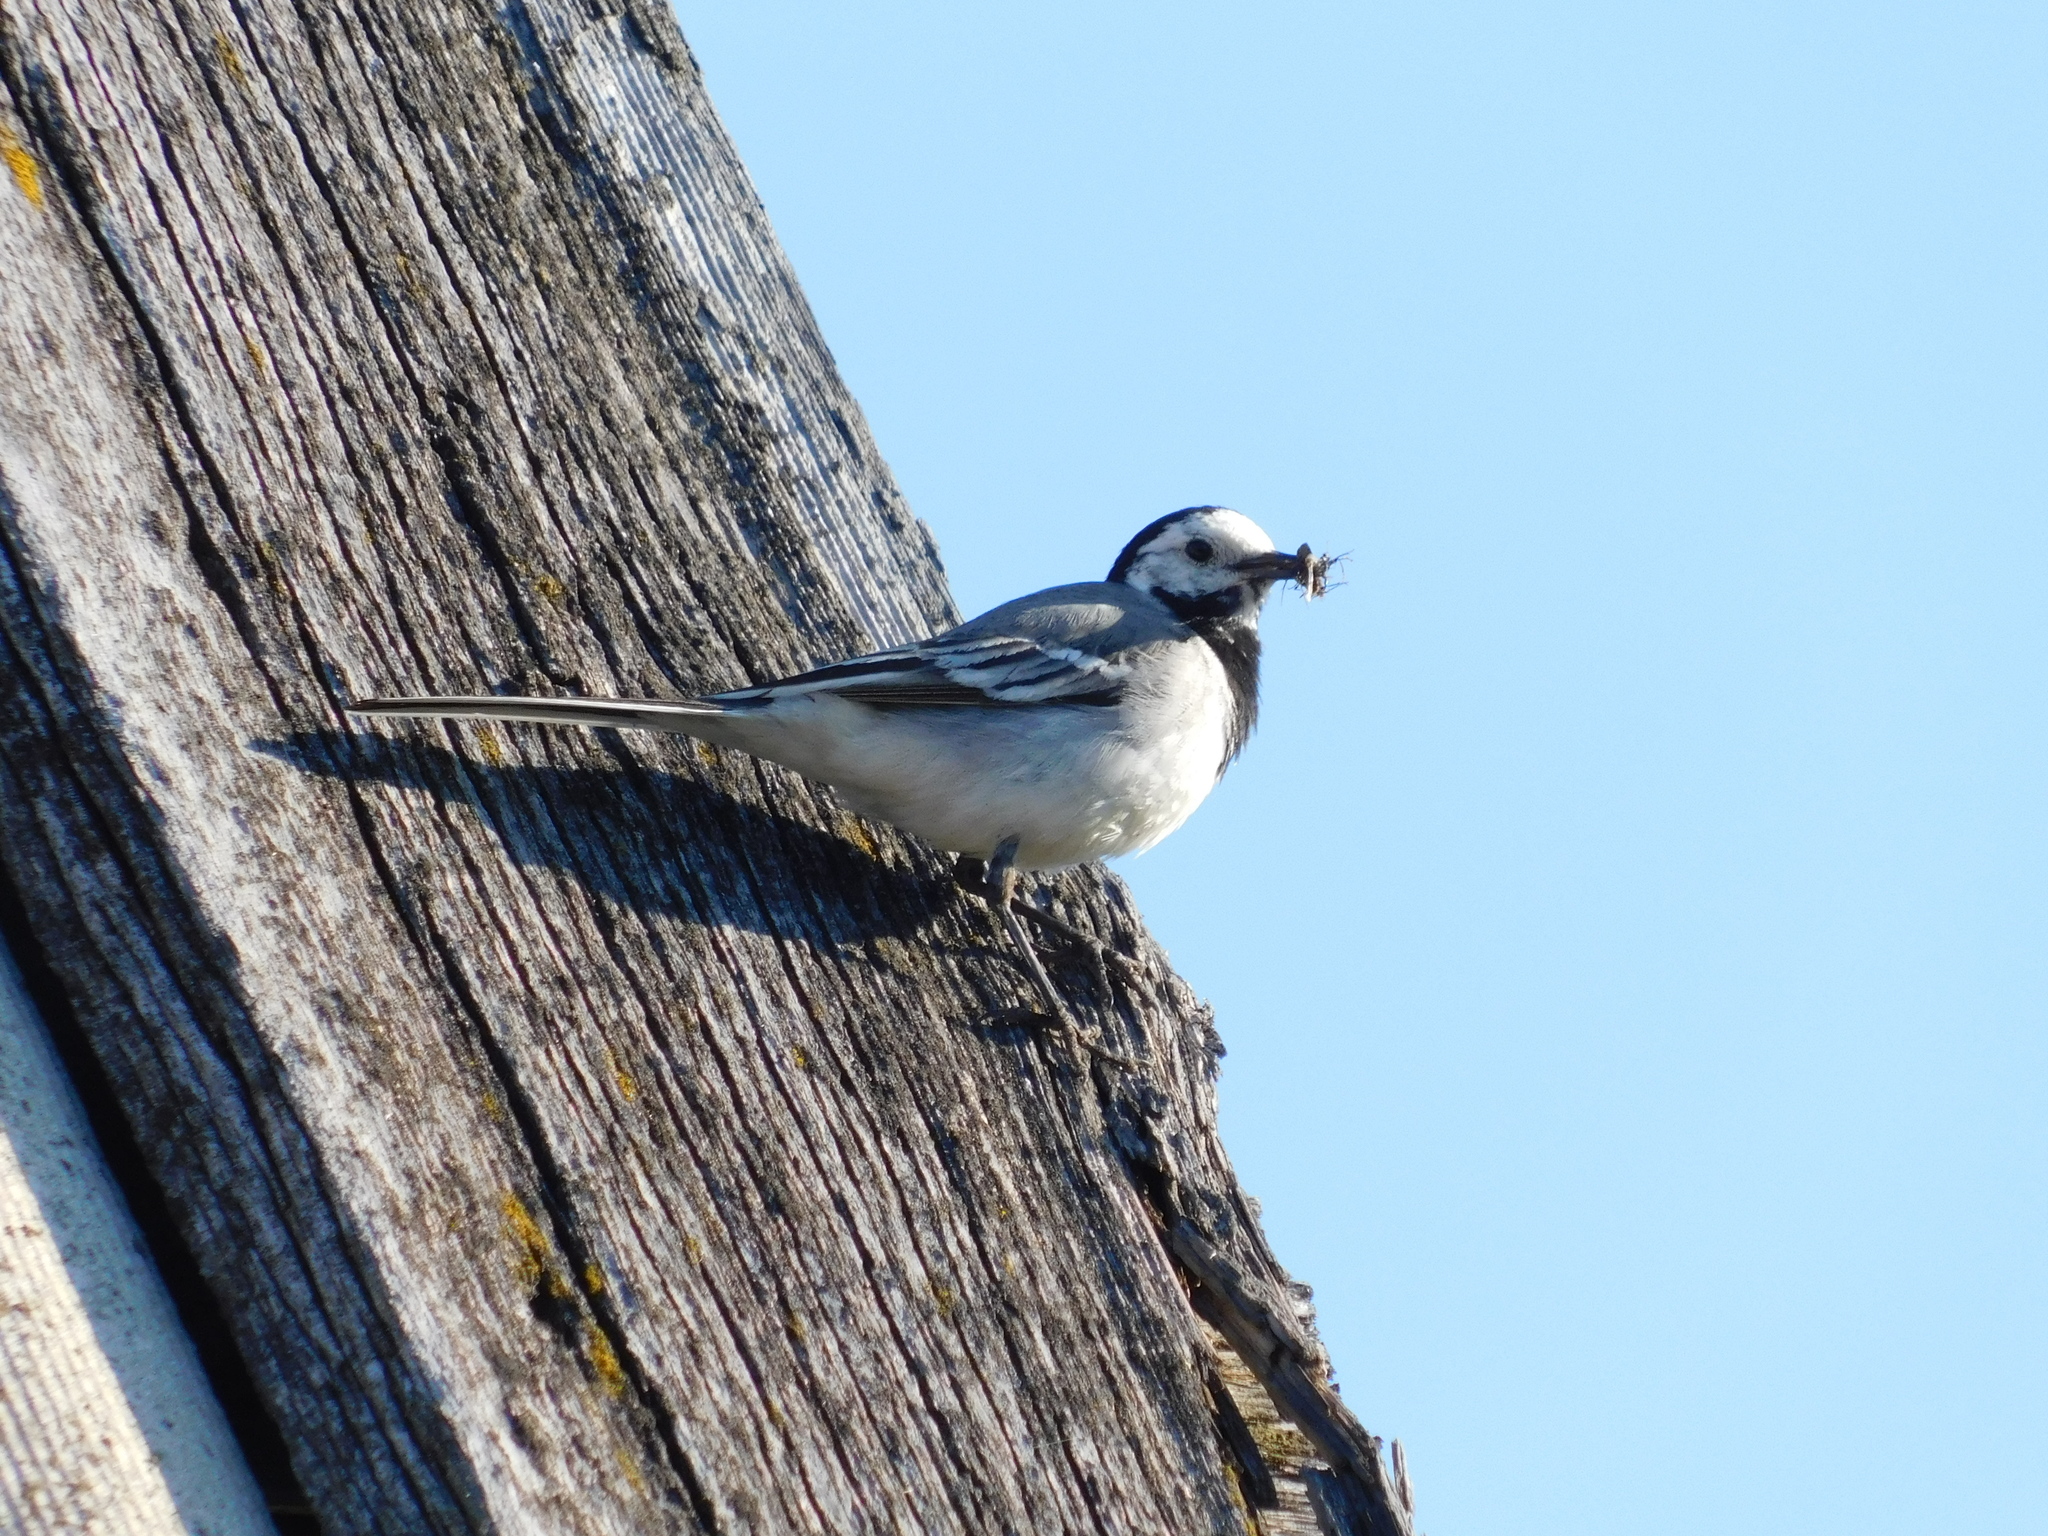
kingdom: Animalia
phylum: Chordata
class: Aves
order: Passeriformes
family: Motacillidae
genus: Motacilla
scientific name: Motacilla alba
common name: White wagtail
